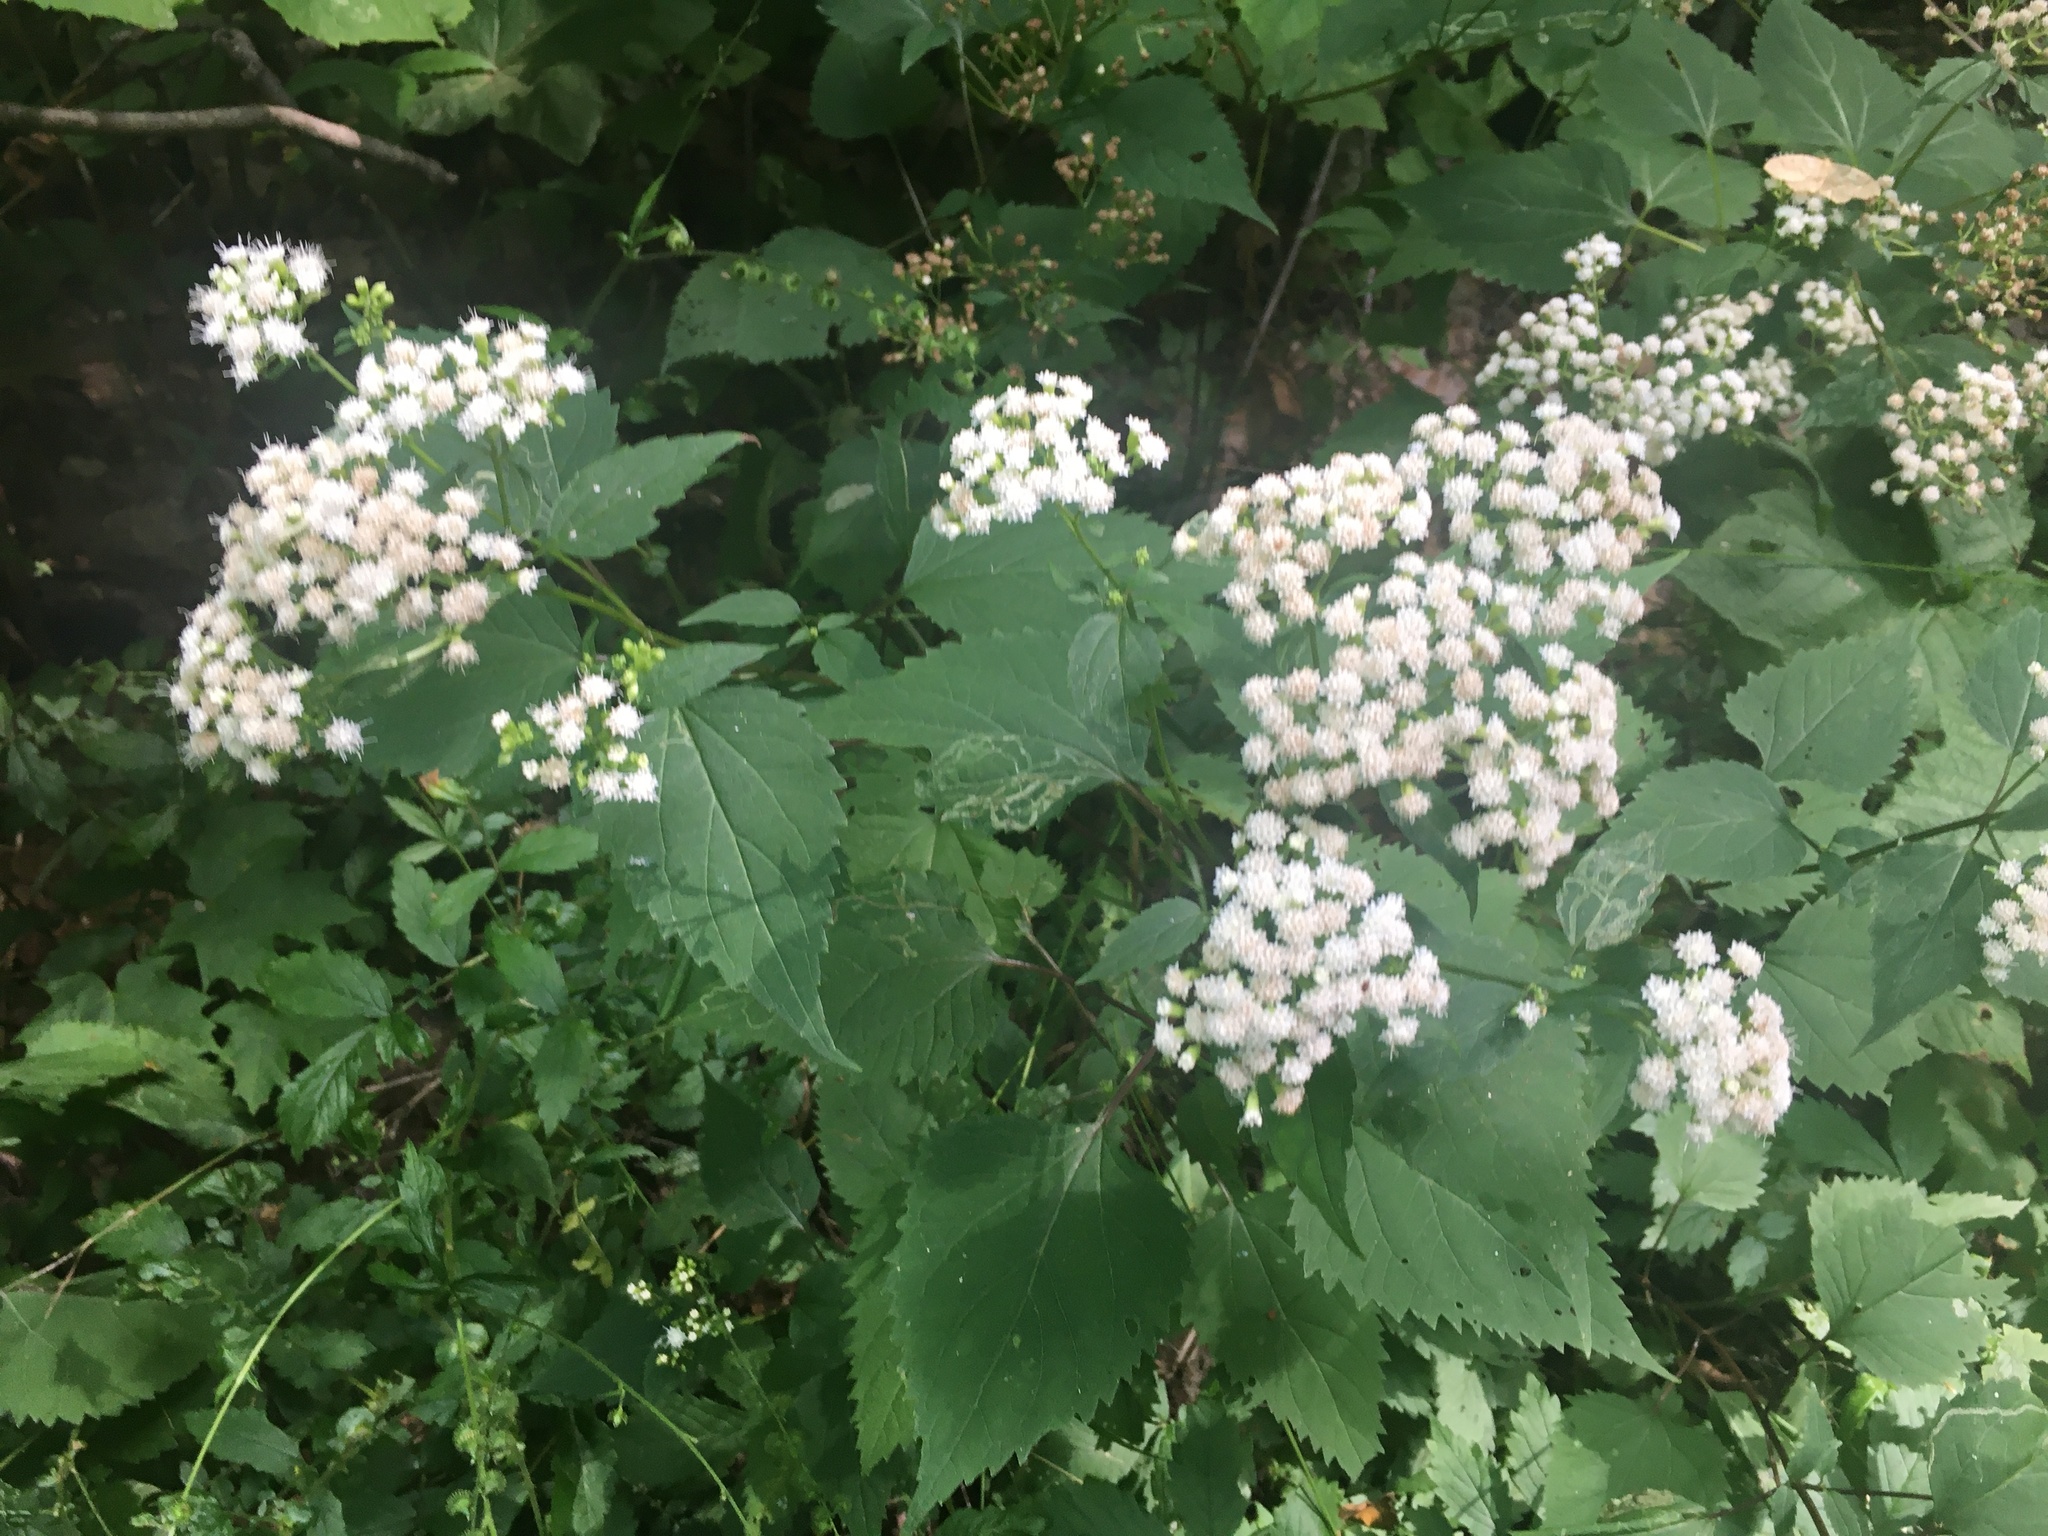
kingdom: Plantae
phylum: Tracheophyta
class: Magnoliopsida
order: Asterales
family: Asteraceae
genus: Ageratina
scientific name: Ageratina altissima
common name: White snakeroot
